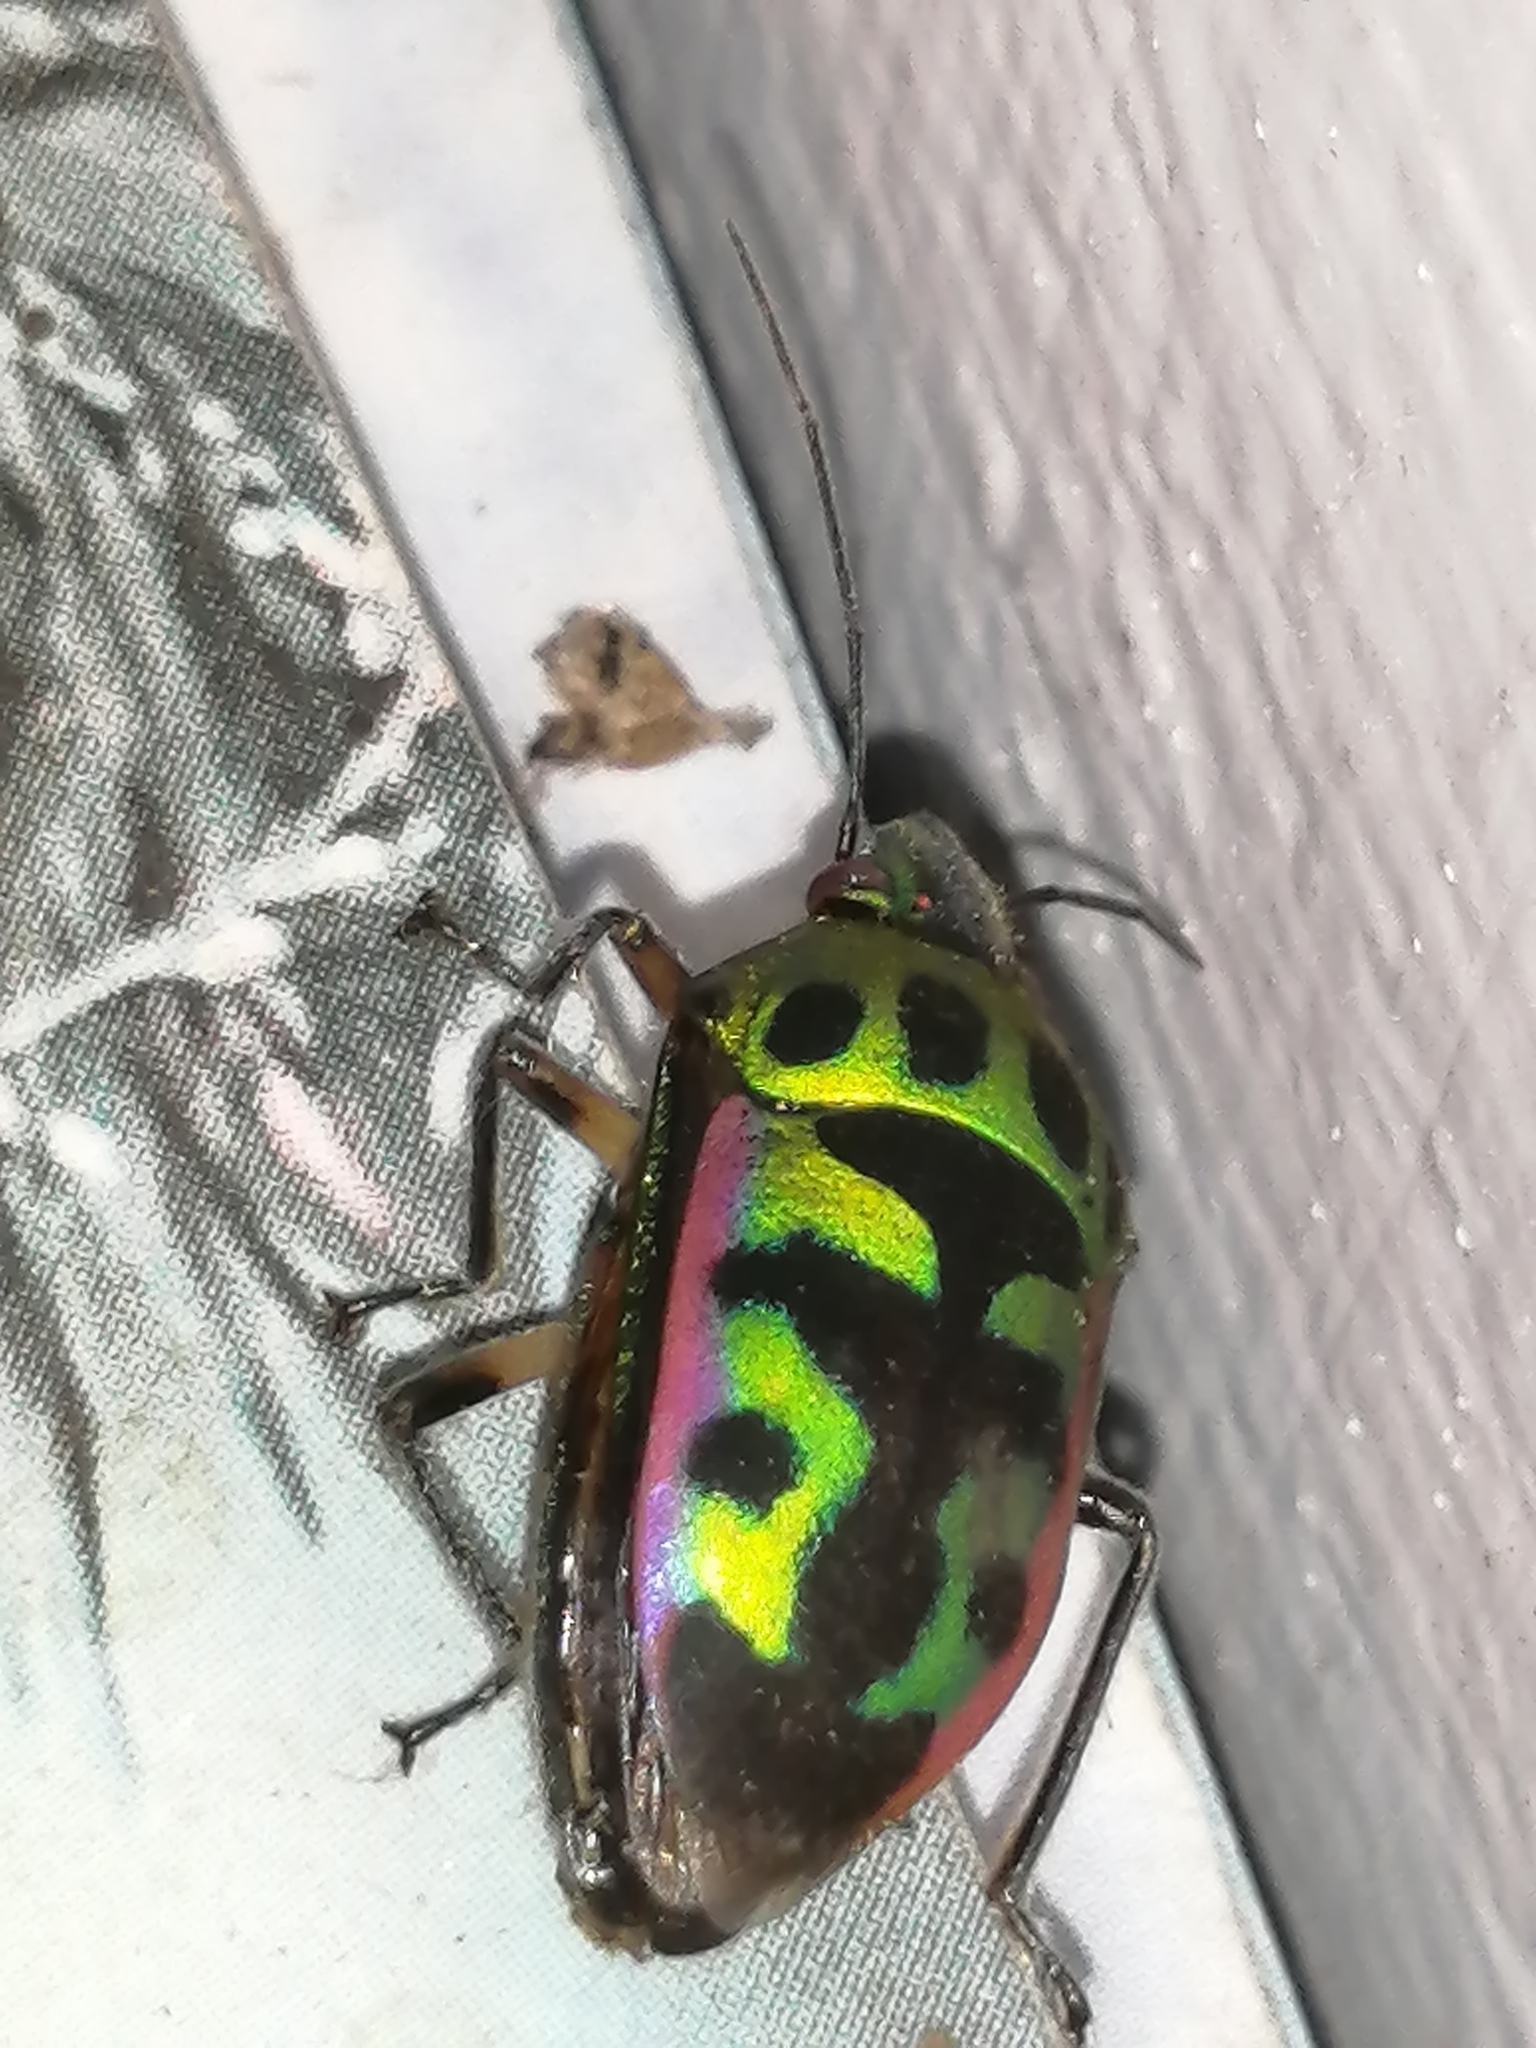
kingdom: Animalia
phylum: Arthropoda
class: Insecta
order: Hemiptera
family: Scutelleridae
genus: Tetrarthria
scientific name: Tetrarthria variegata
